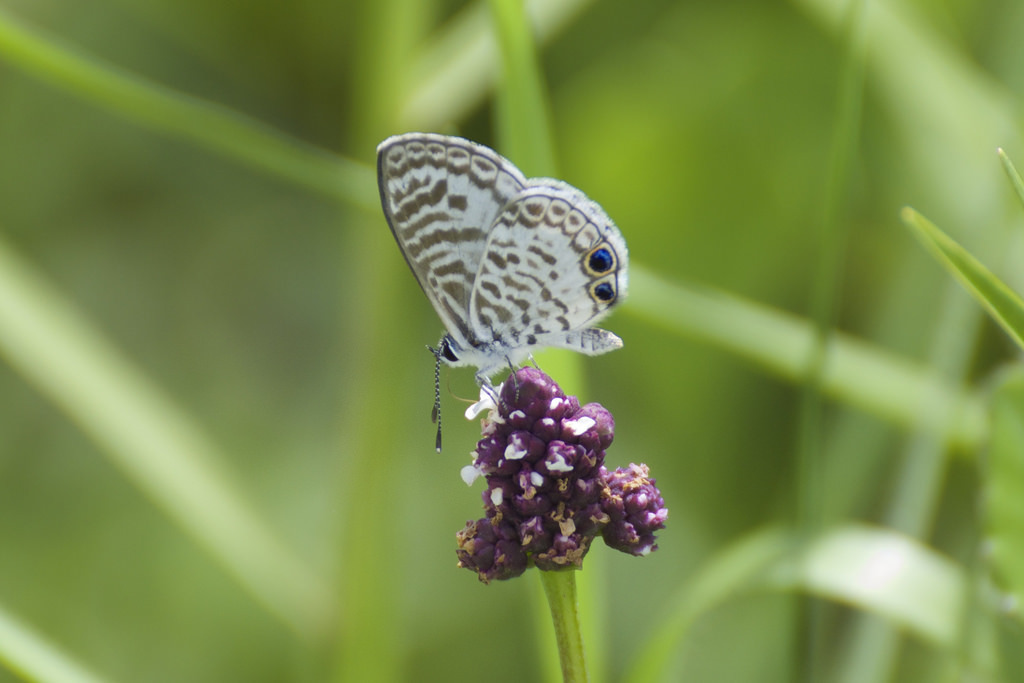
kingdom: Animalia
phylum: Arthropoda
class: Insecta
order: Lepidoptera
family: Lycaenidae
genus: Leptotes
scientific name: Leptotes cassius
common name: Cassius blue
